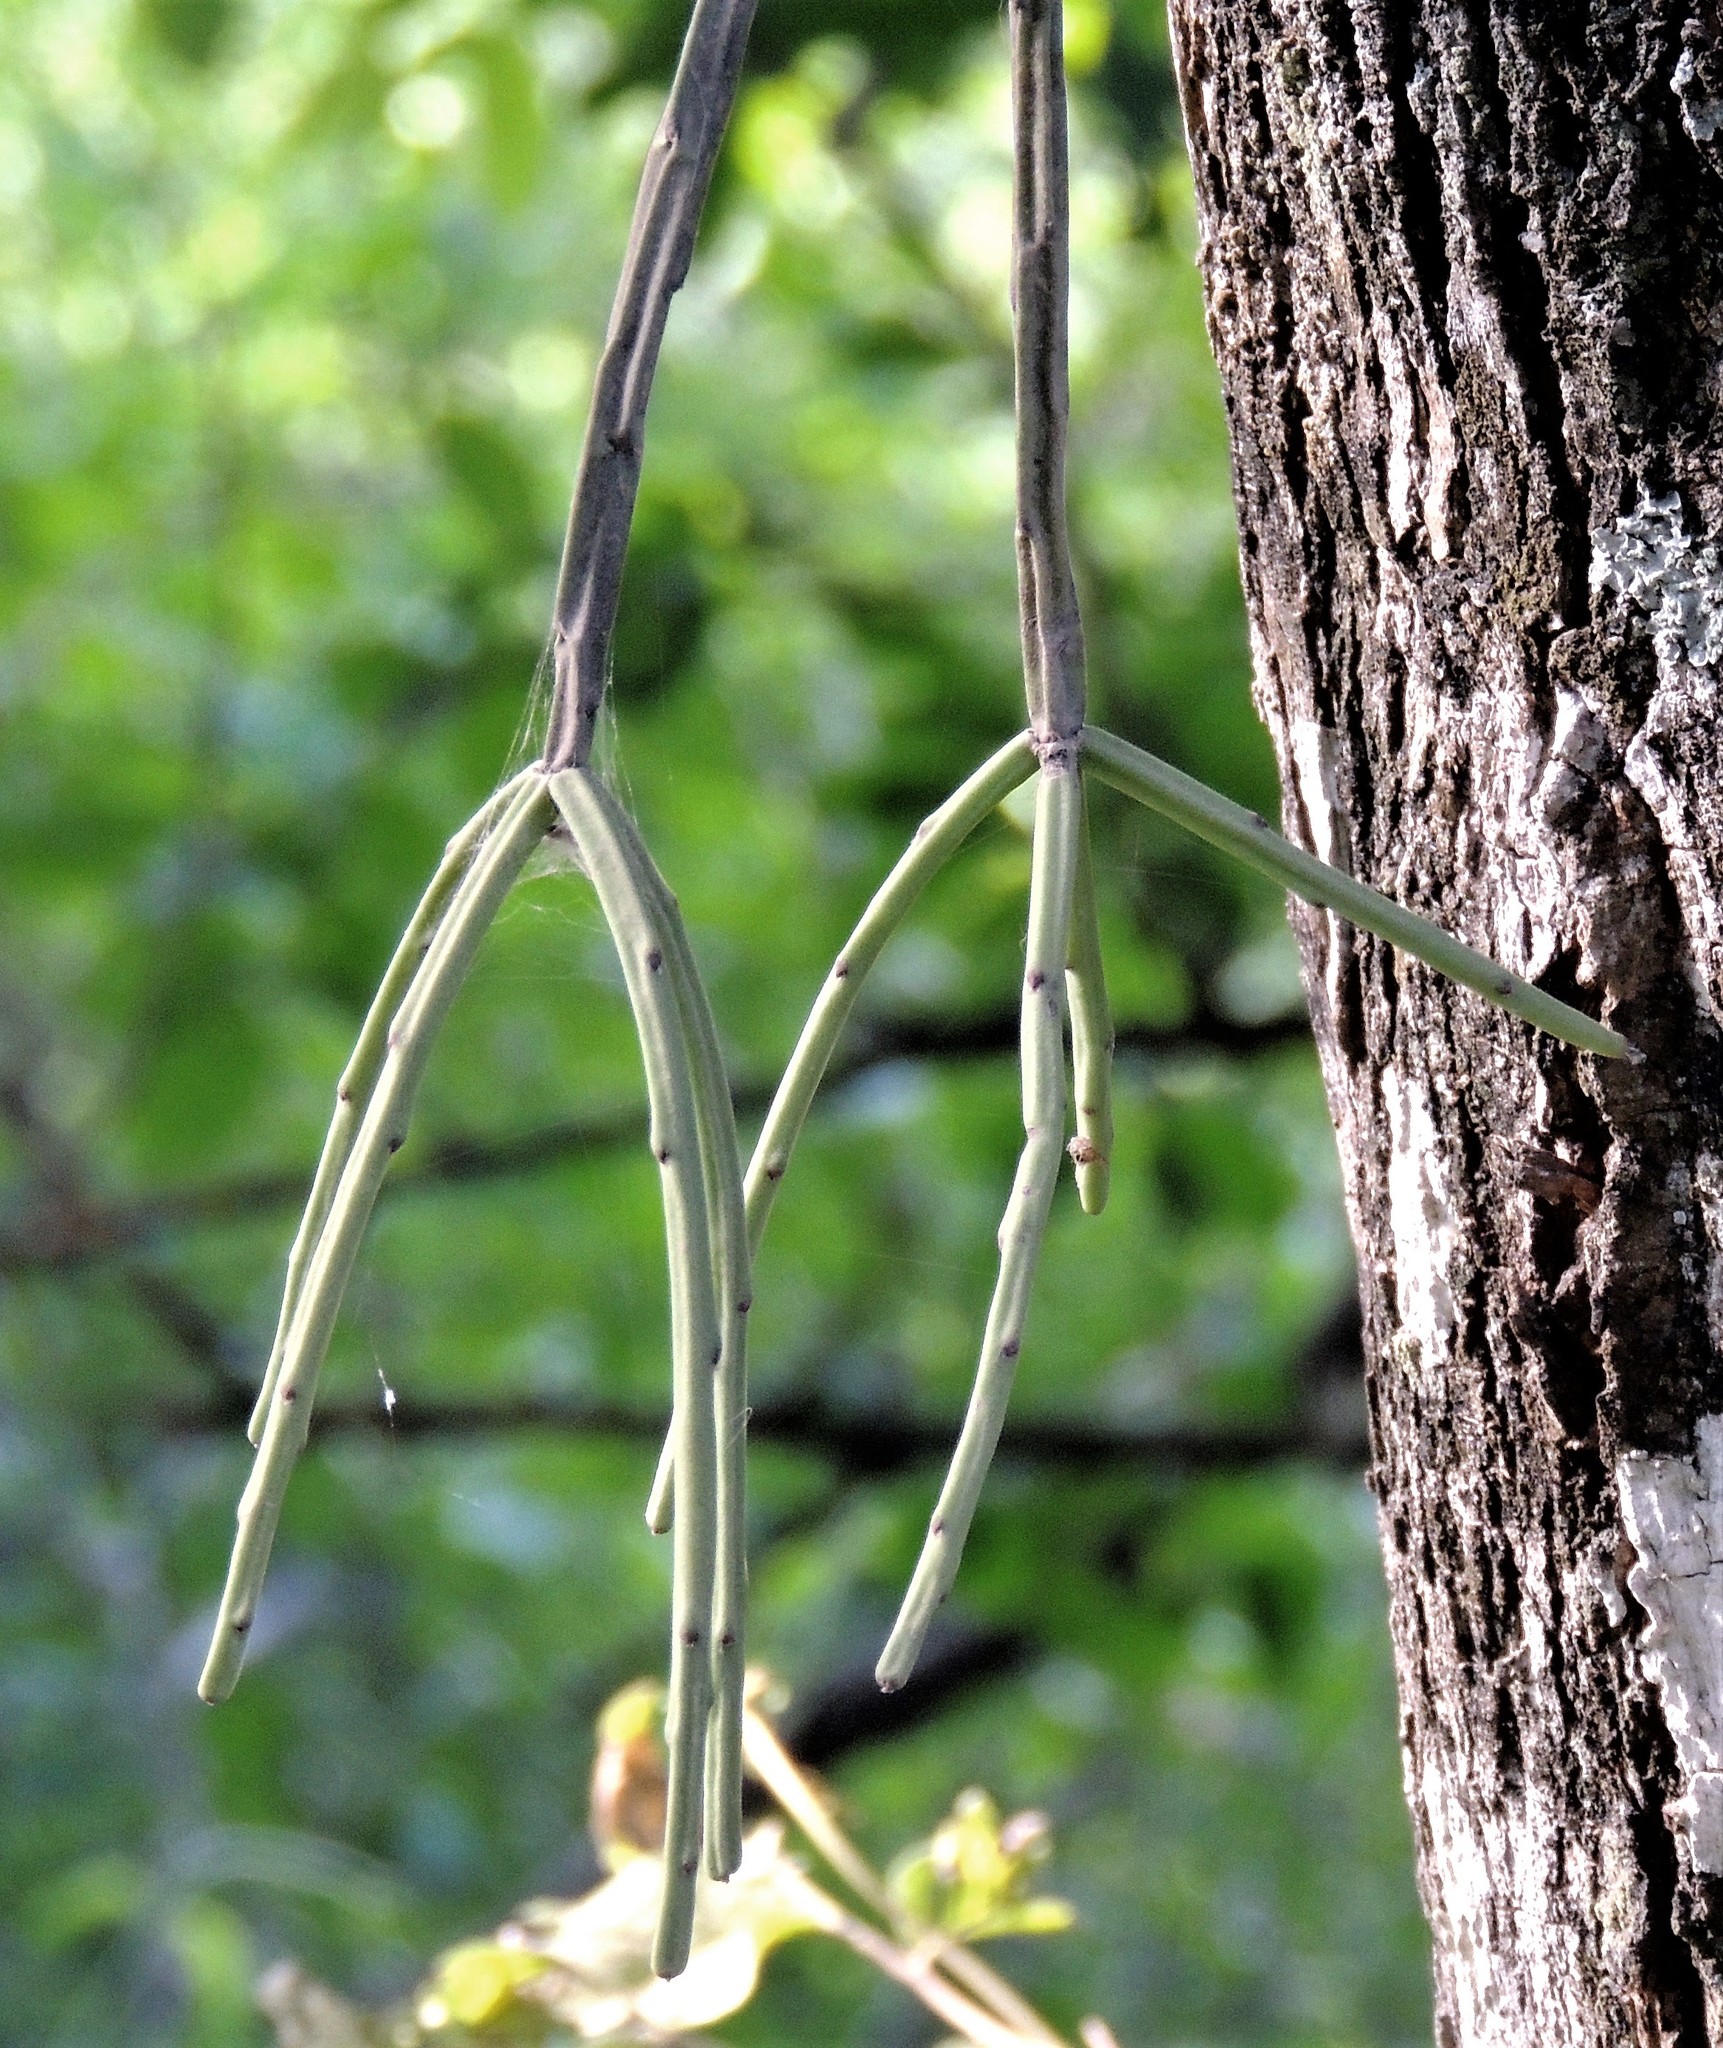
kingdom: Plantae
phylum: Tracheophyta
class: Magnoliopsida
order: Caryophyllales
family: Cactaceae
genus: Rhipsalis
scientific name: Rhipsalis floccosa
